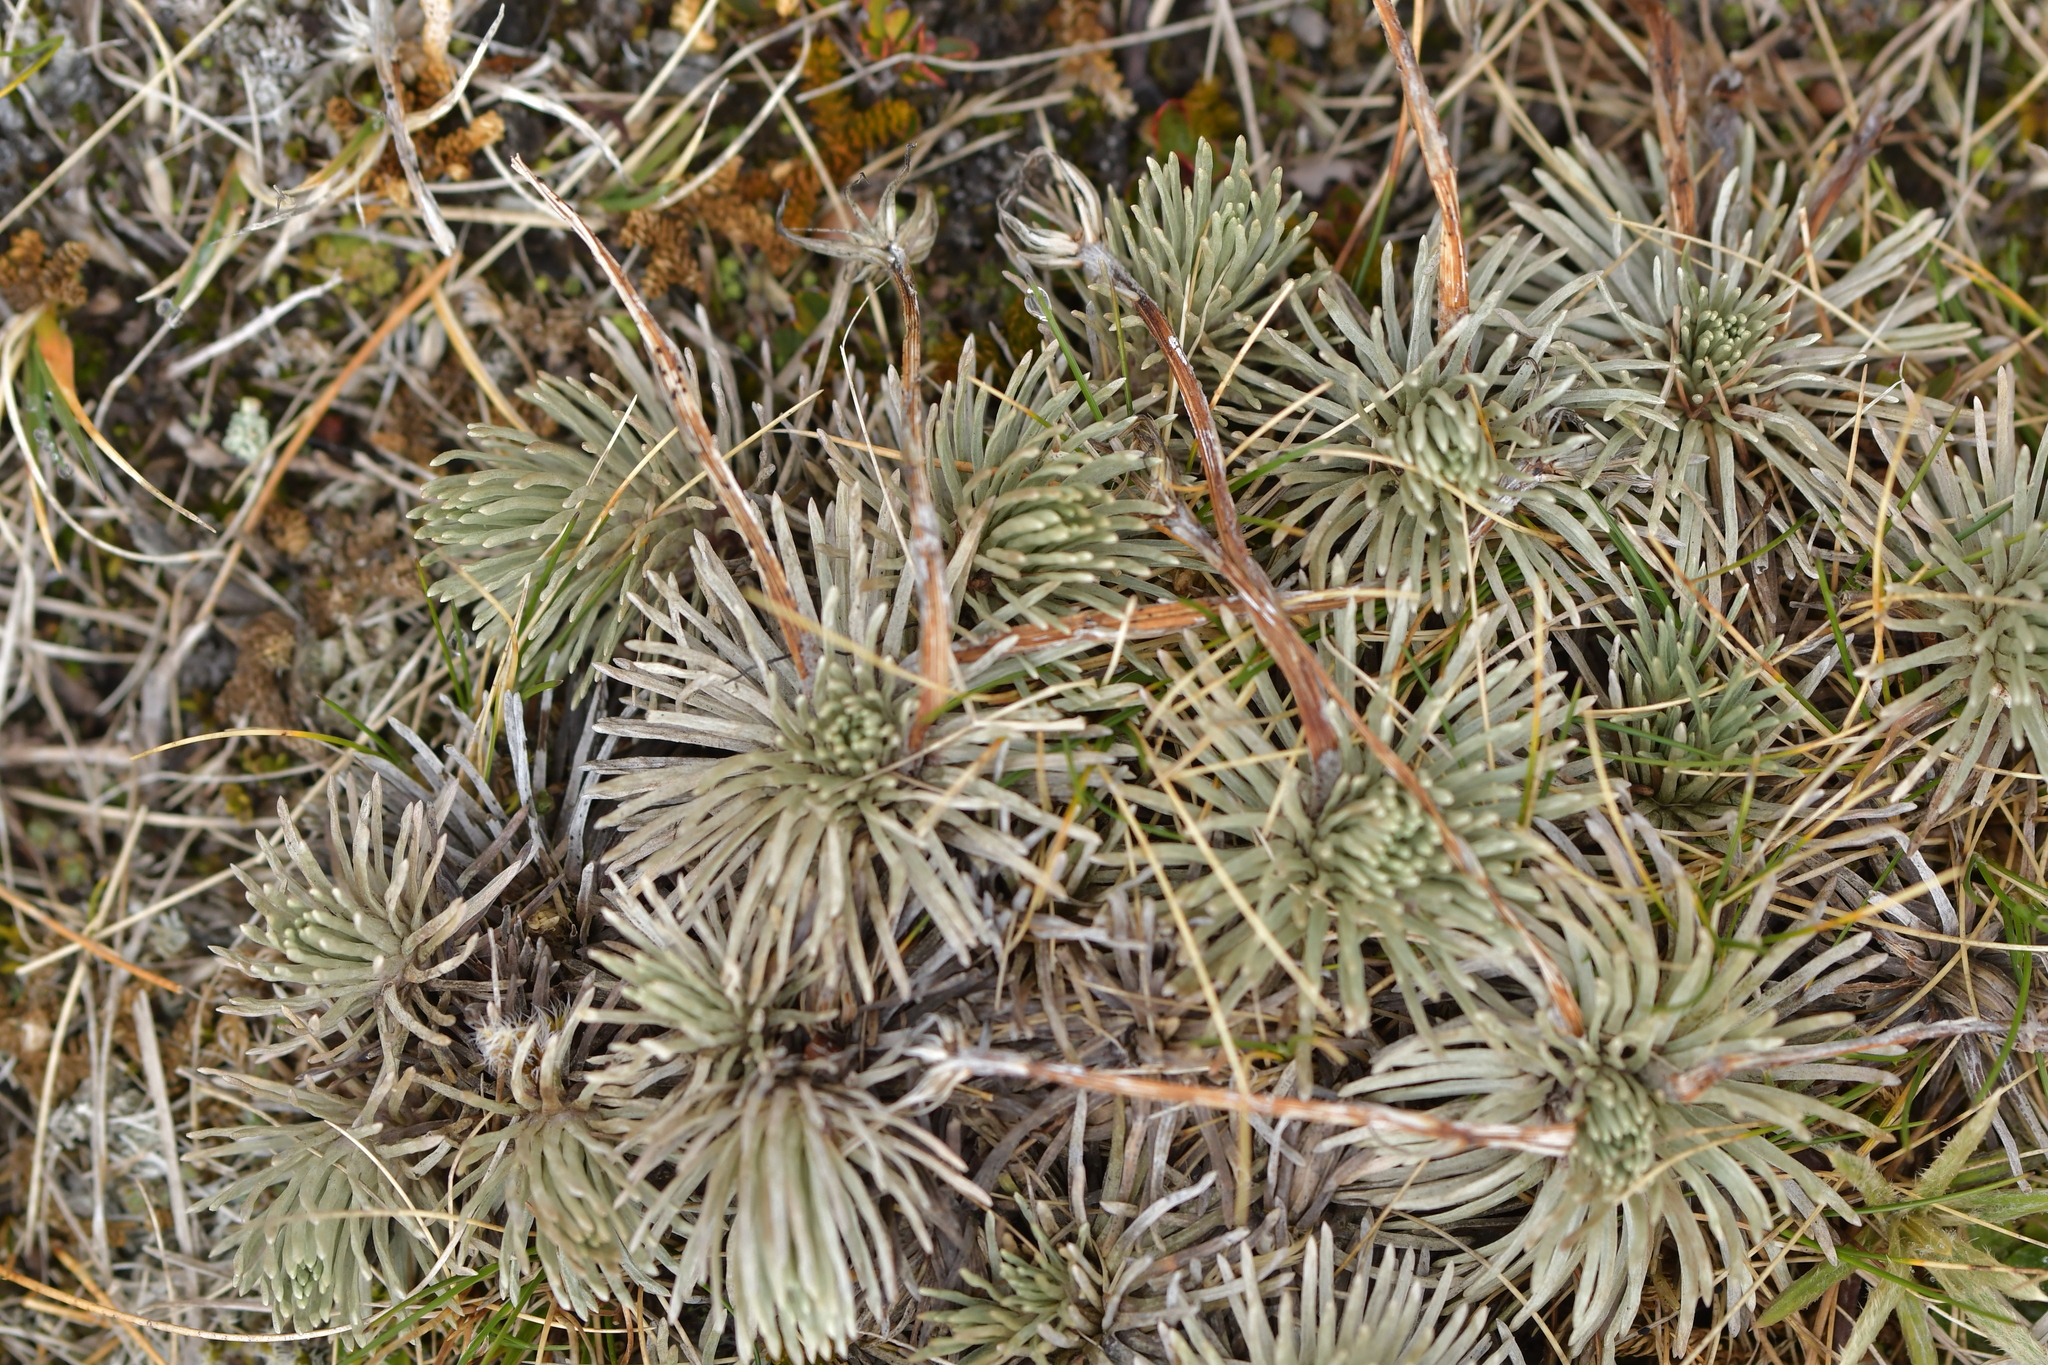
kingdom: Plantae
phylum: Tracheophyta
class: Magnoliopsida
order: Asterales
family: Asteraceae
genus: Celmisia
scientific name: Celmisia sessiliflora
